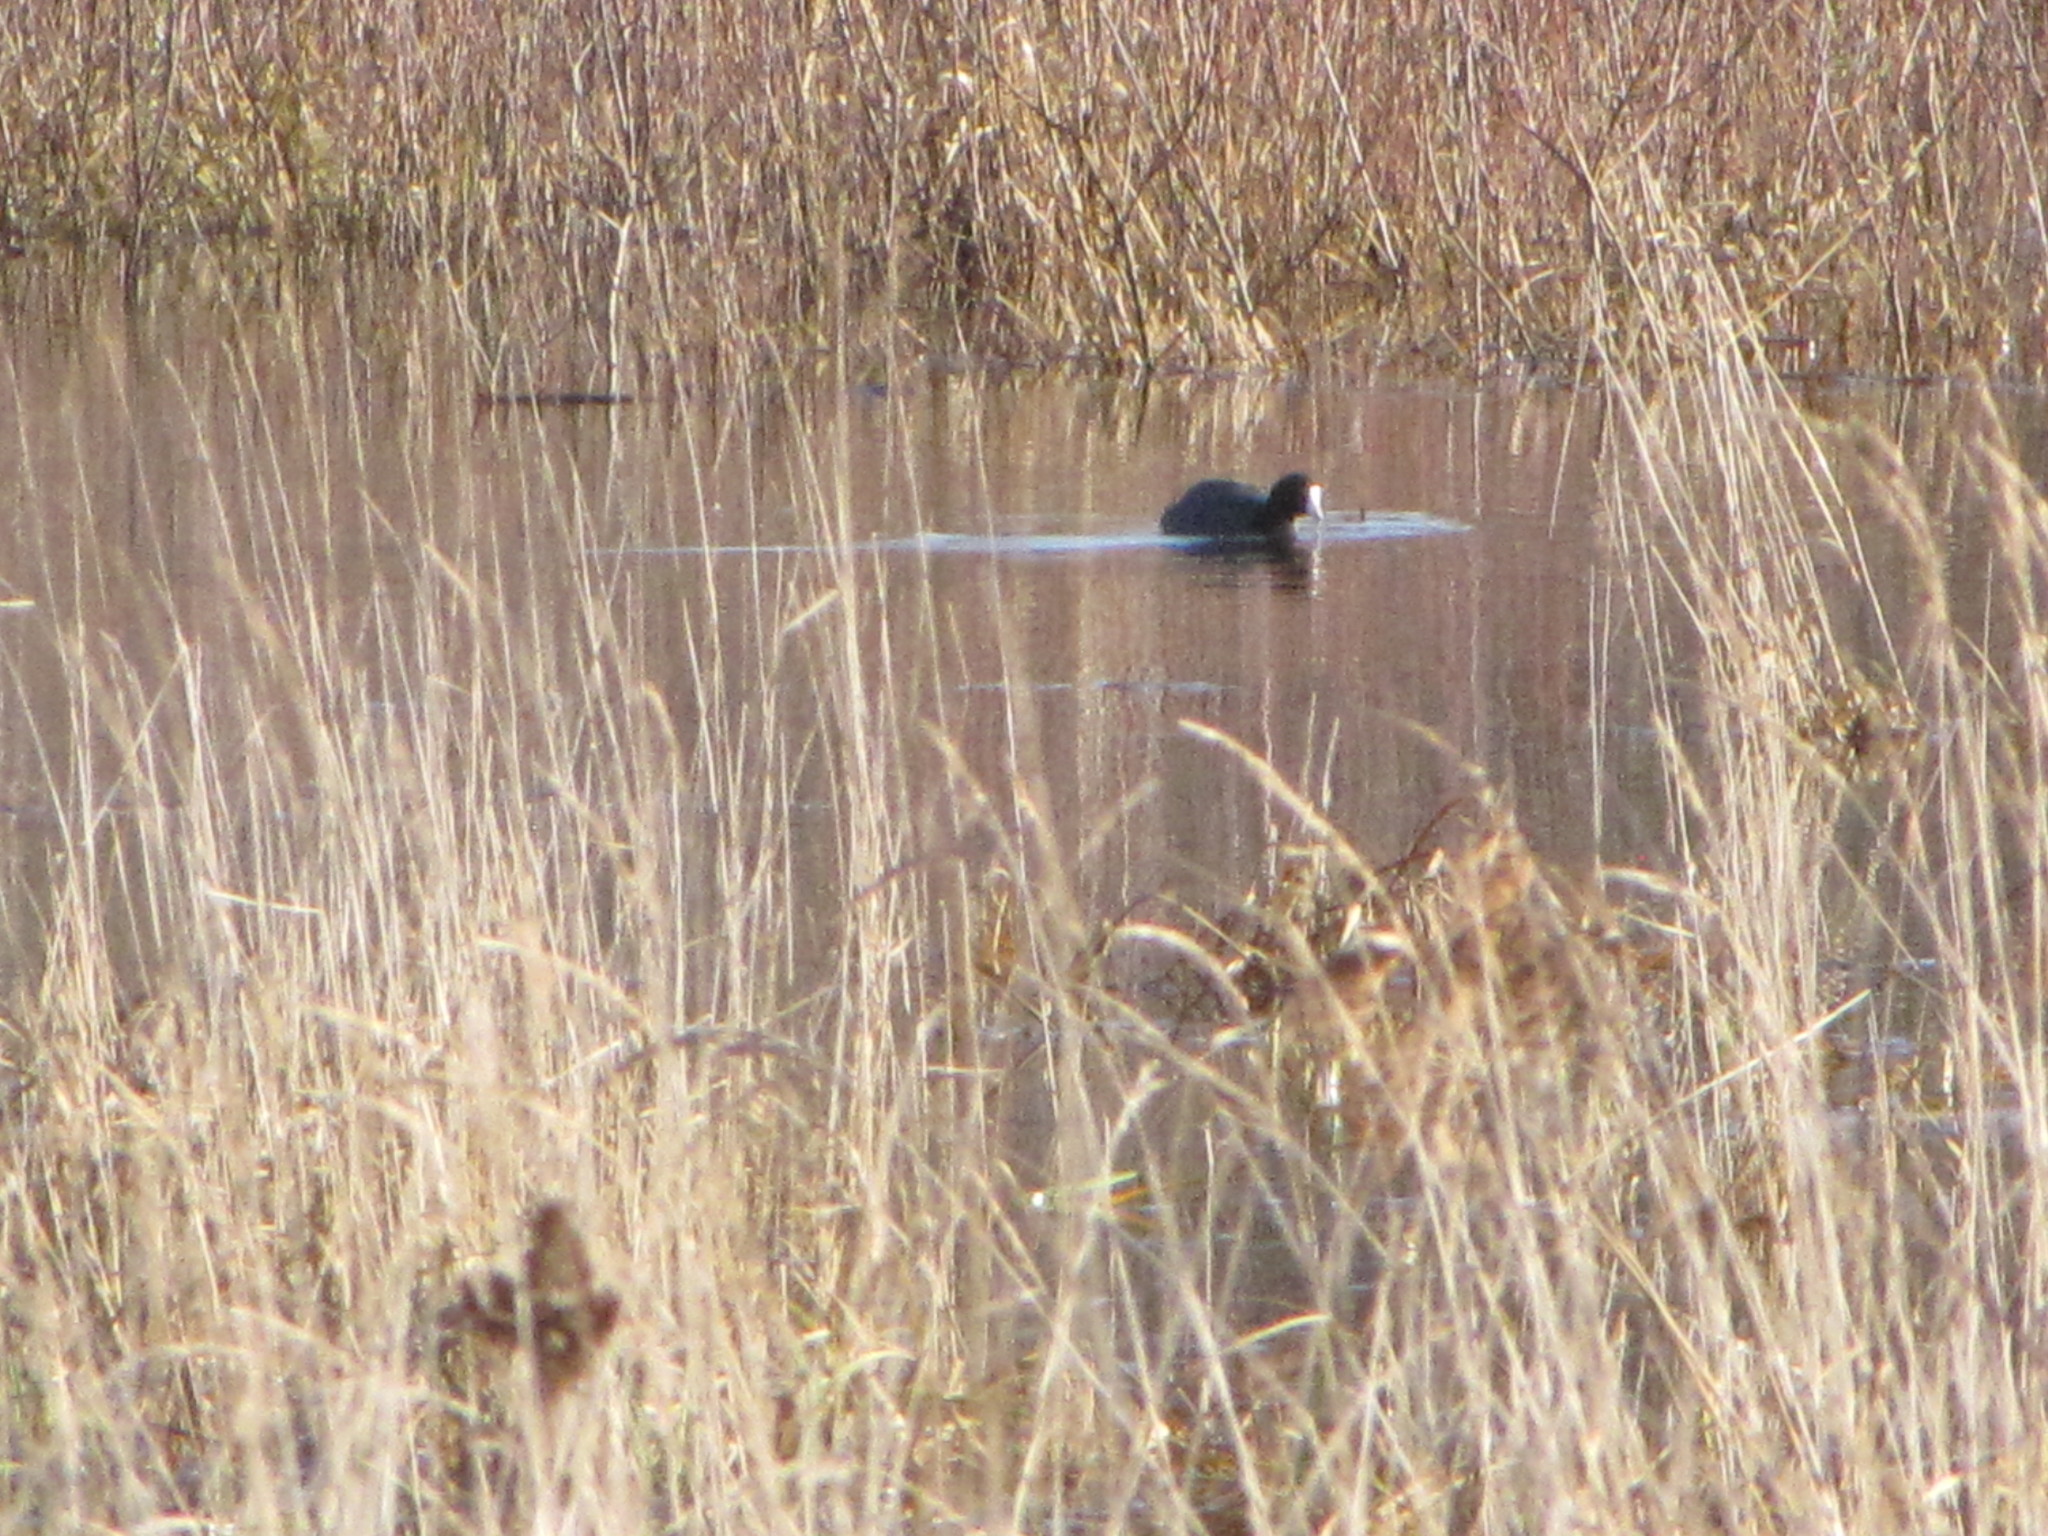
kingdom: Animalia
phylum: Chordata
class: Aves
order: Gruiformes
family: Rallidae
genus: Fulica
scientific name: Fulica americana
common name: American coot
